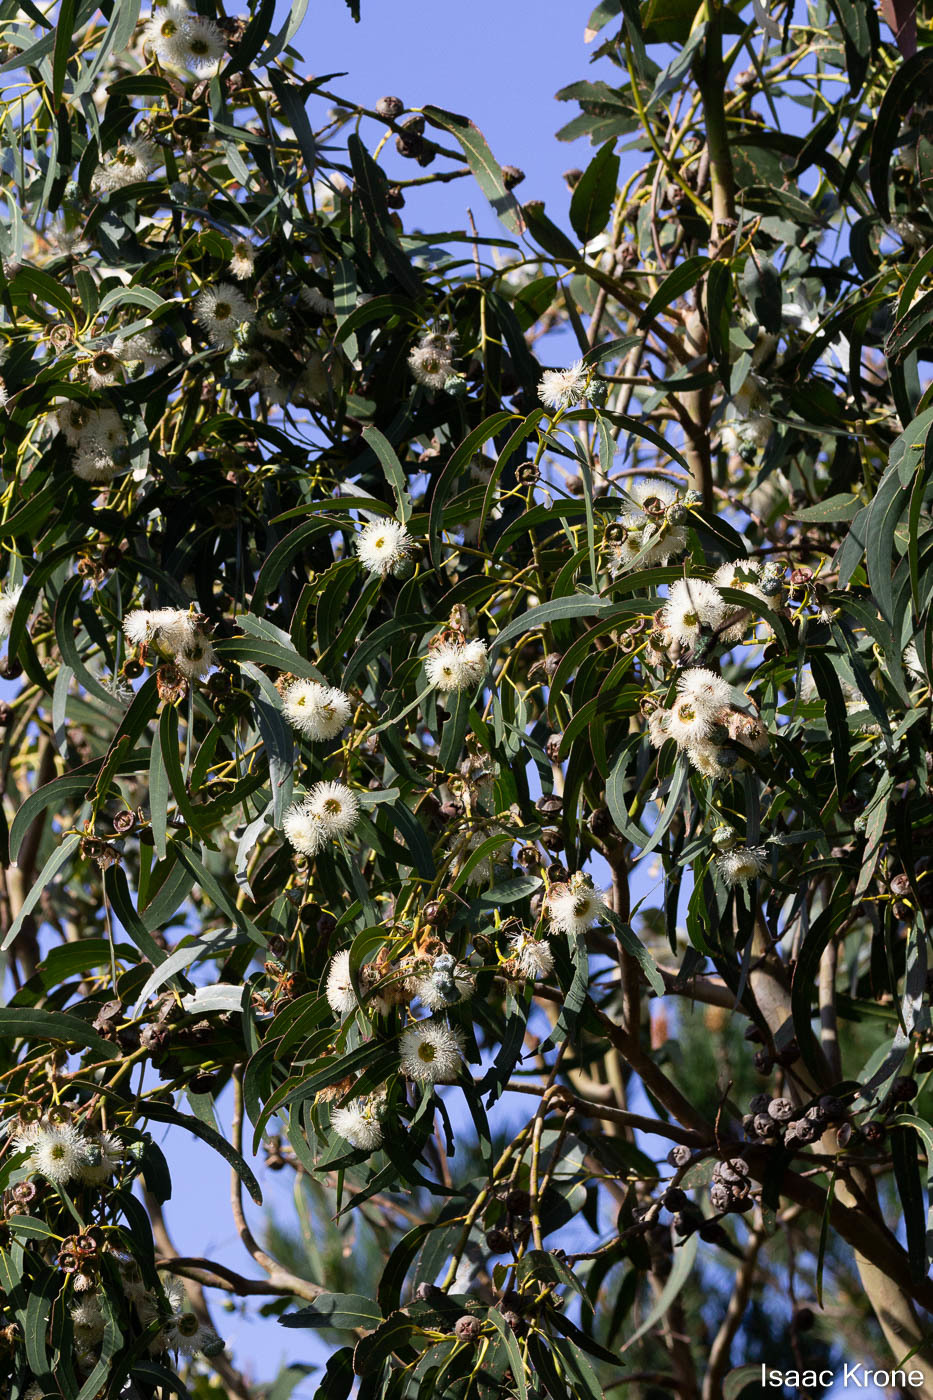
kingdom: Plantae
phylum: Tracheophyta
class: Magnoliopsida
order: Myrtales
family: Myrtaceae
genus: Eucalyptus
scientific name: Eucalyptus globulus
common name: Southern blue-gum
